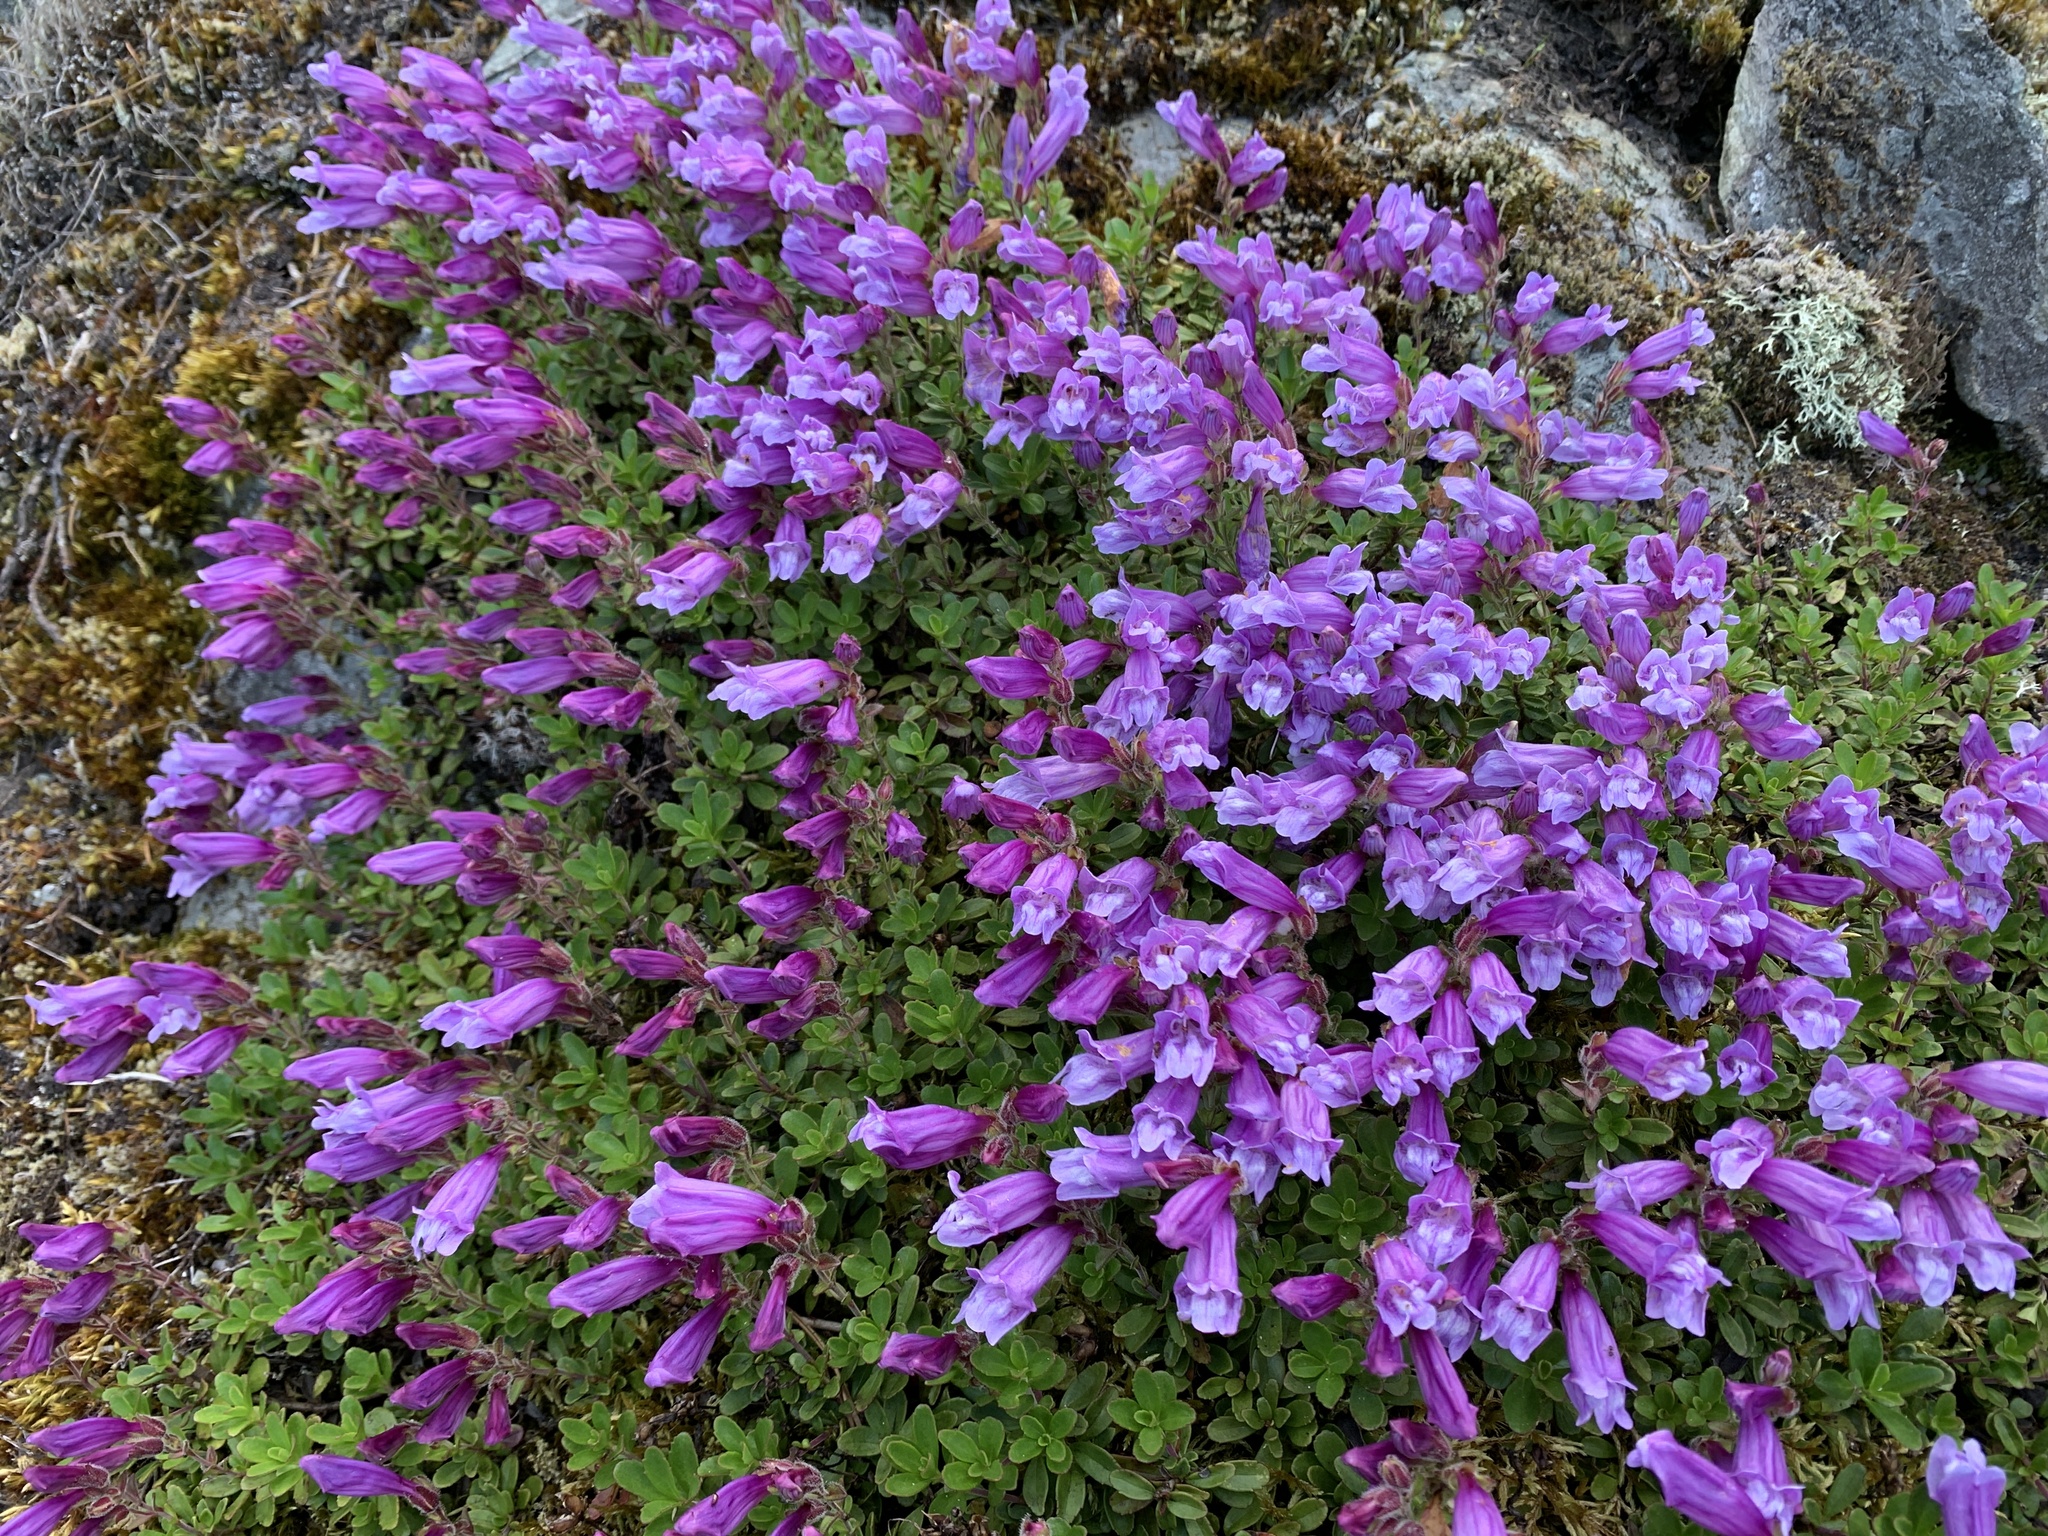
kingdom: Plantae
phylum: Tracheophyta
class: Magnoliopsida
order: Lamiales
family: Plantaginaceae
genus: Penstemon
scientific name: Penstemon davidsonii
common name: Davidson's penstemon
